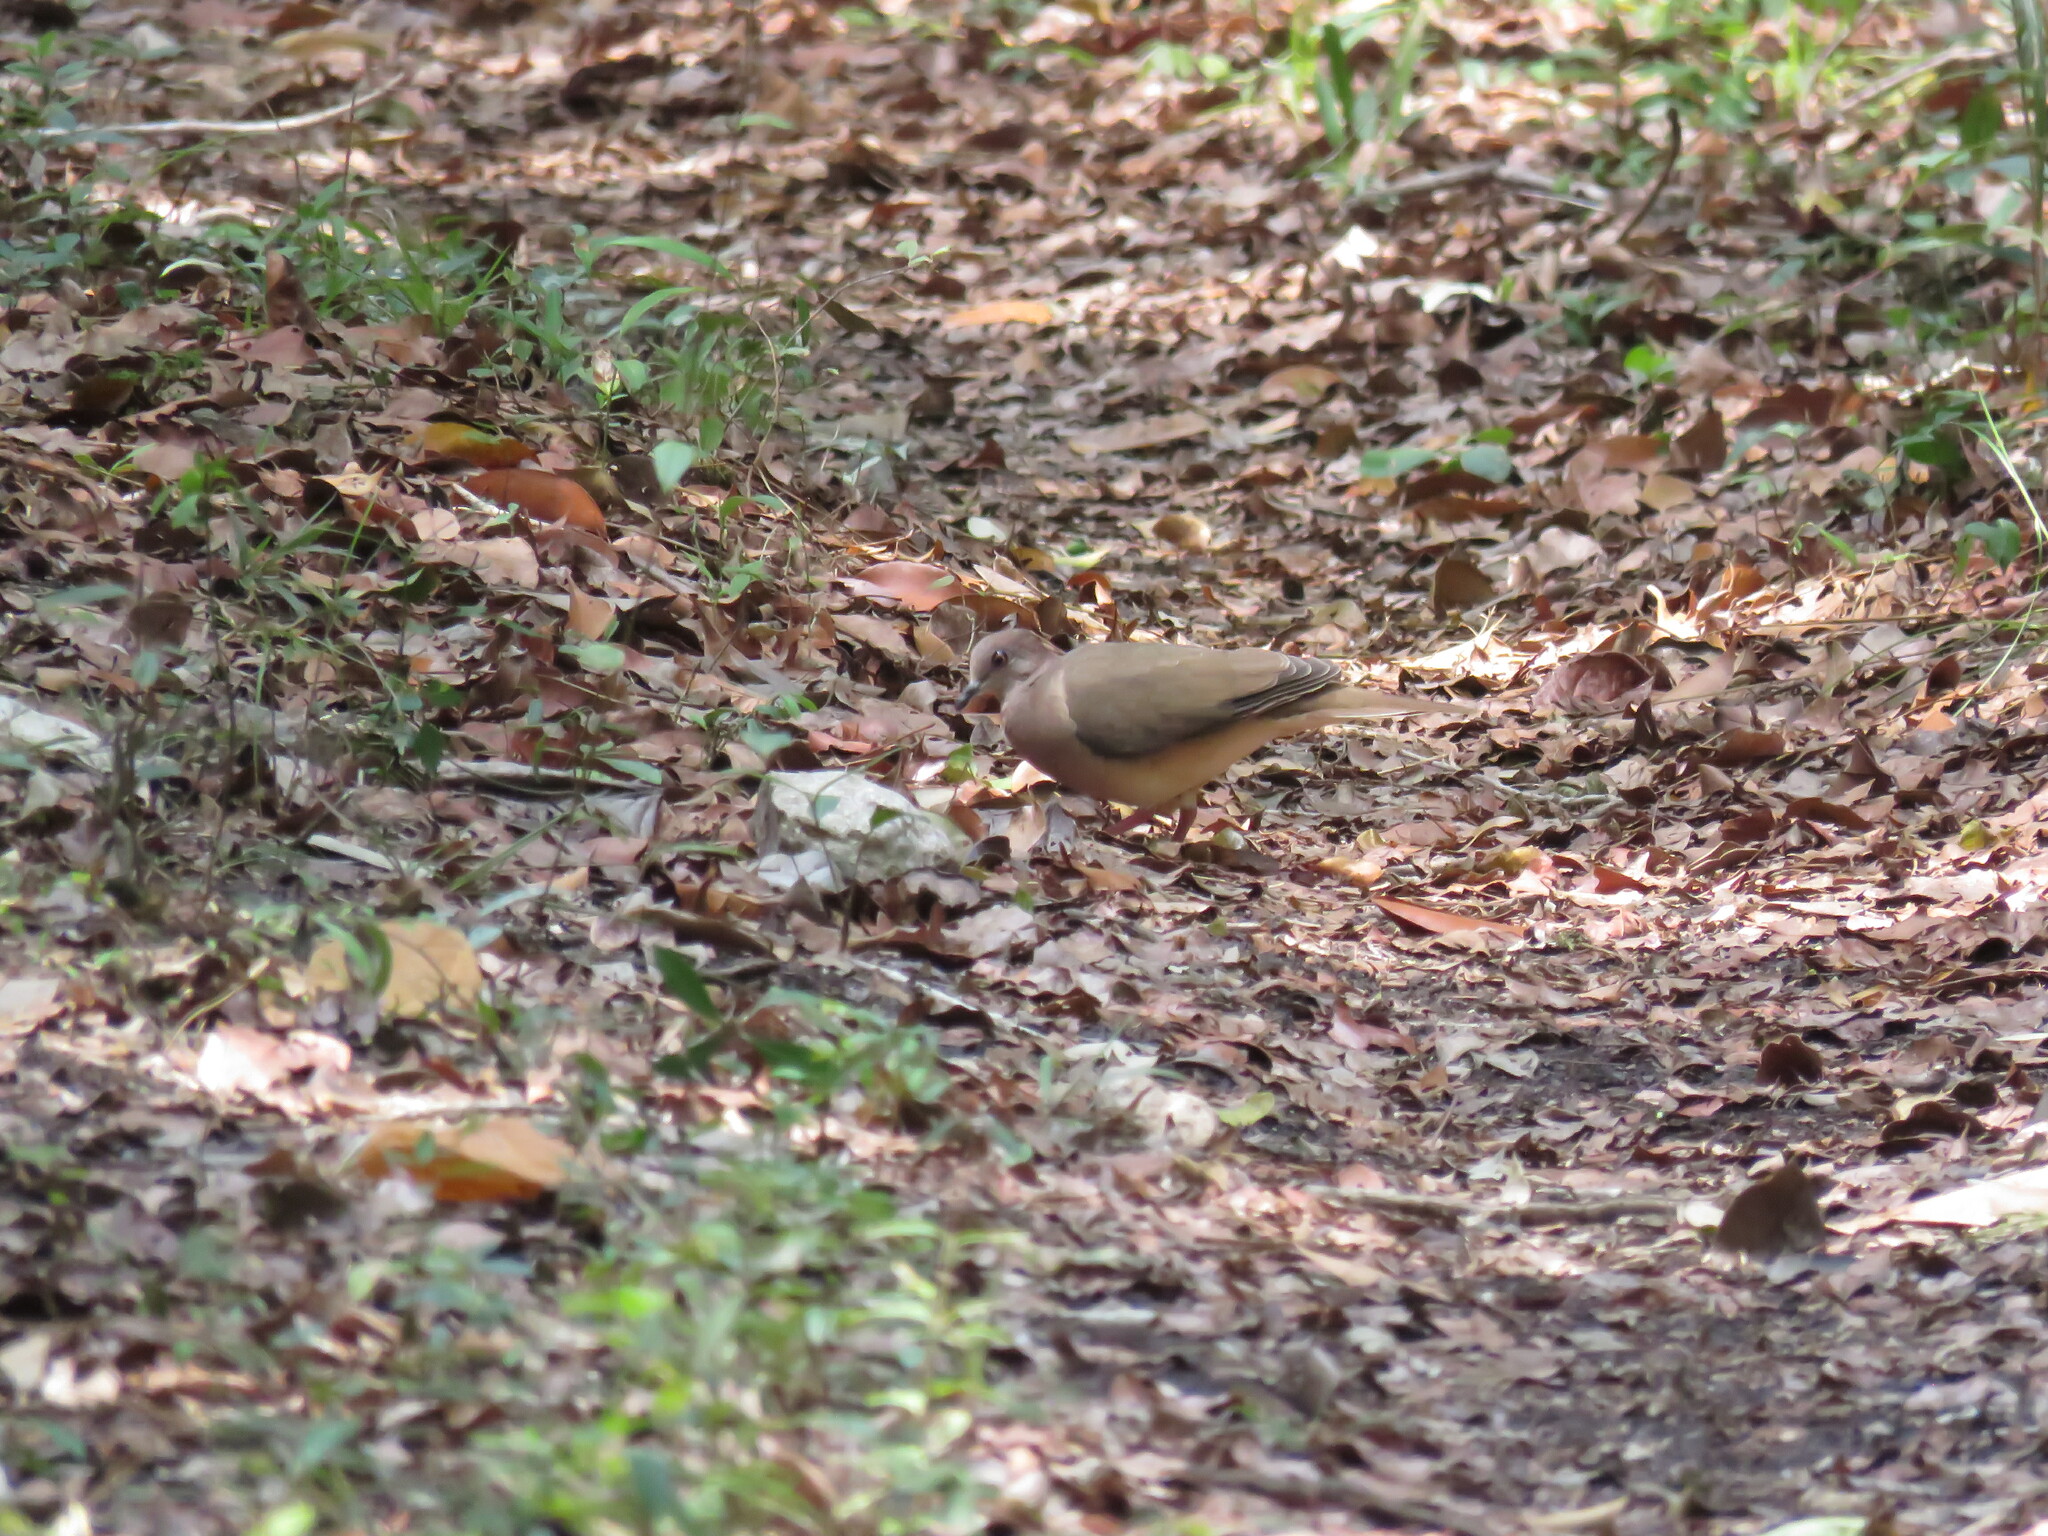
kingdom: Animalia
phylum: Chordata
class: Aves
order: Columbiformes
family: Columbidae
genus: Leptotila
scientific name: Leptotila verreauxi
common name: White-tipped dove
